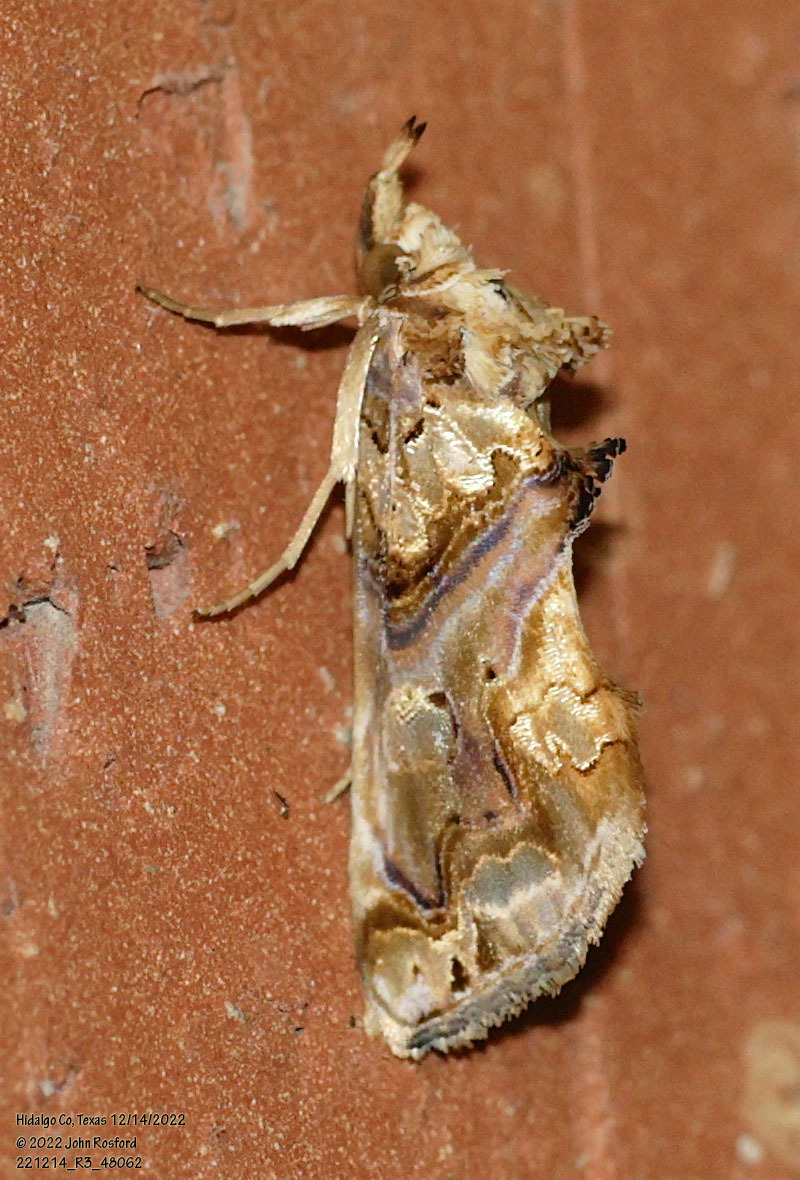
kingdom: Animalia
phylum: Arthropoda
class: Insecta
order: Lepidoptera
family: Erebidae
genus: Plusiodonta
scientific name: Plusiodonta compressipalpis
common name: Moonseed moth
